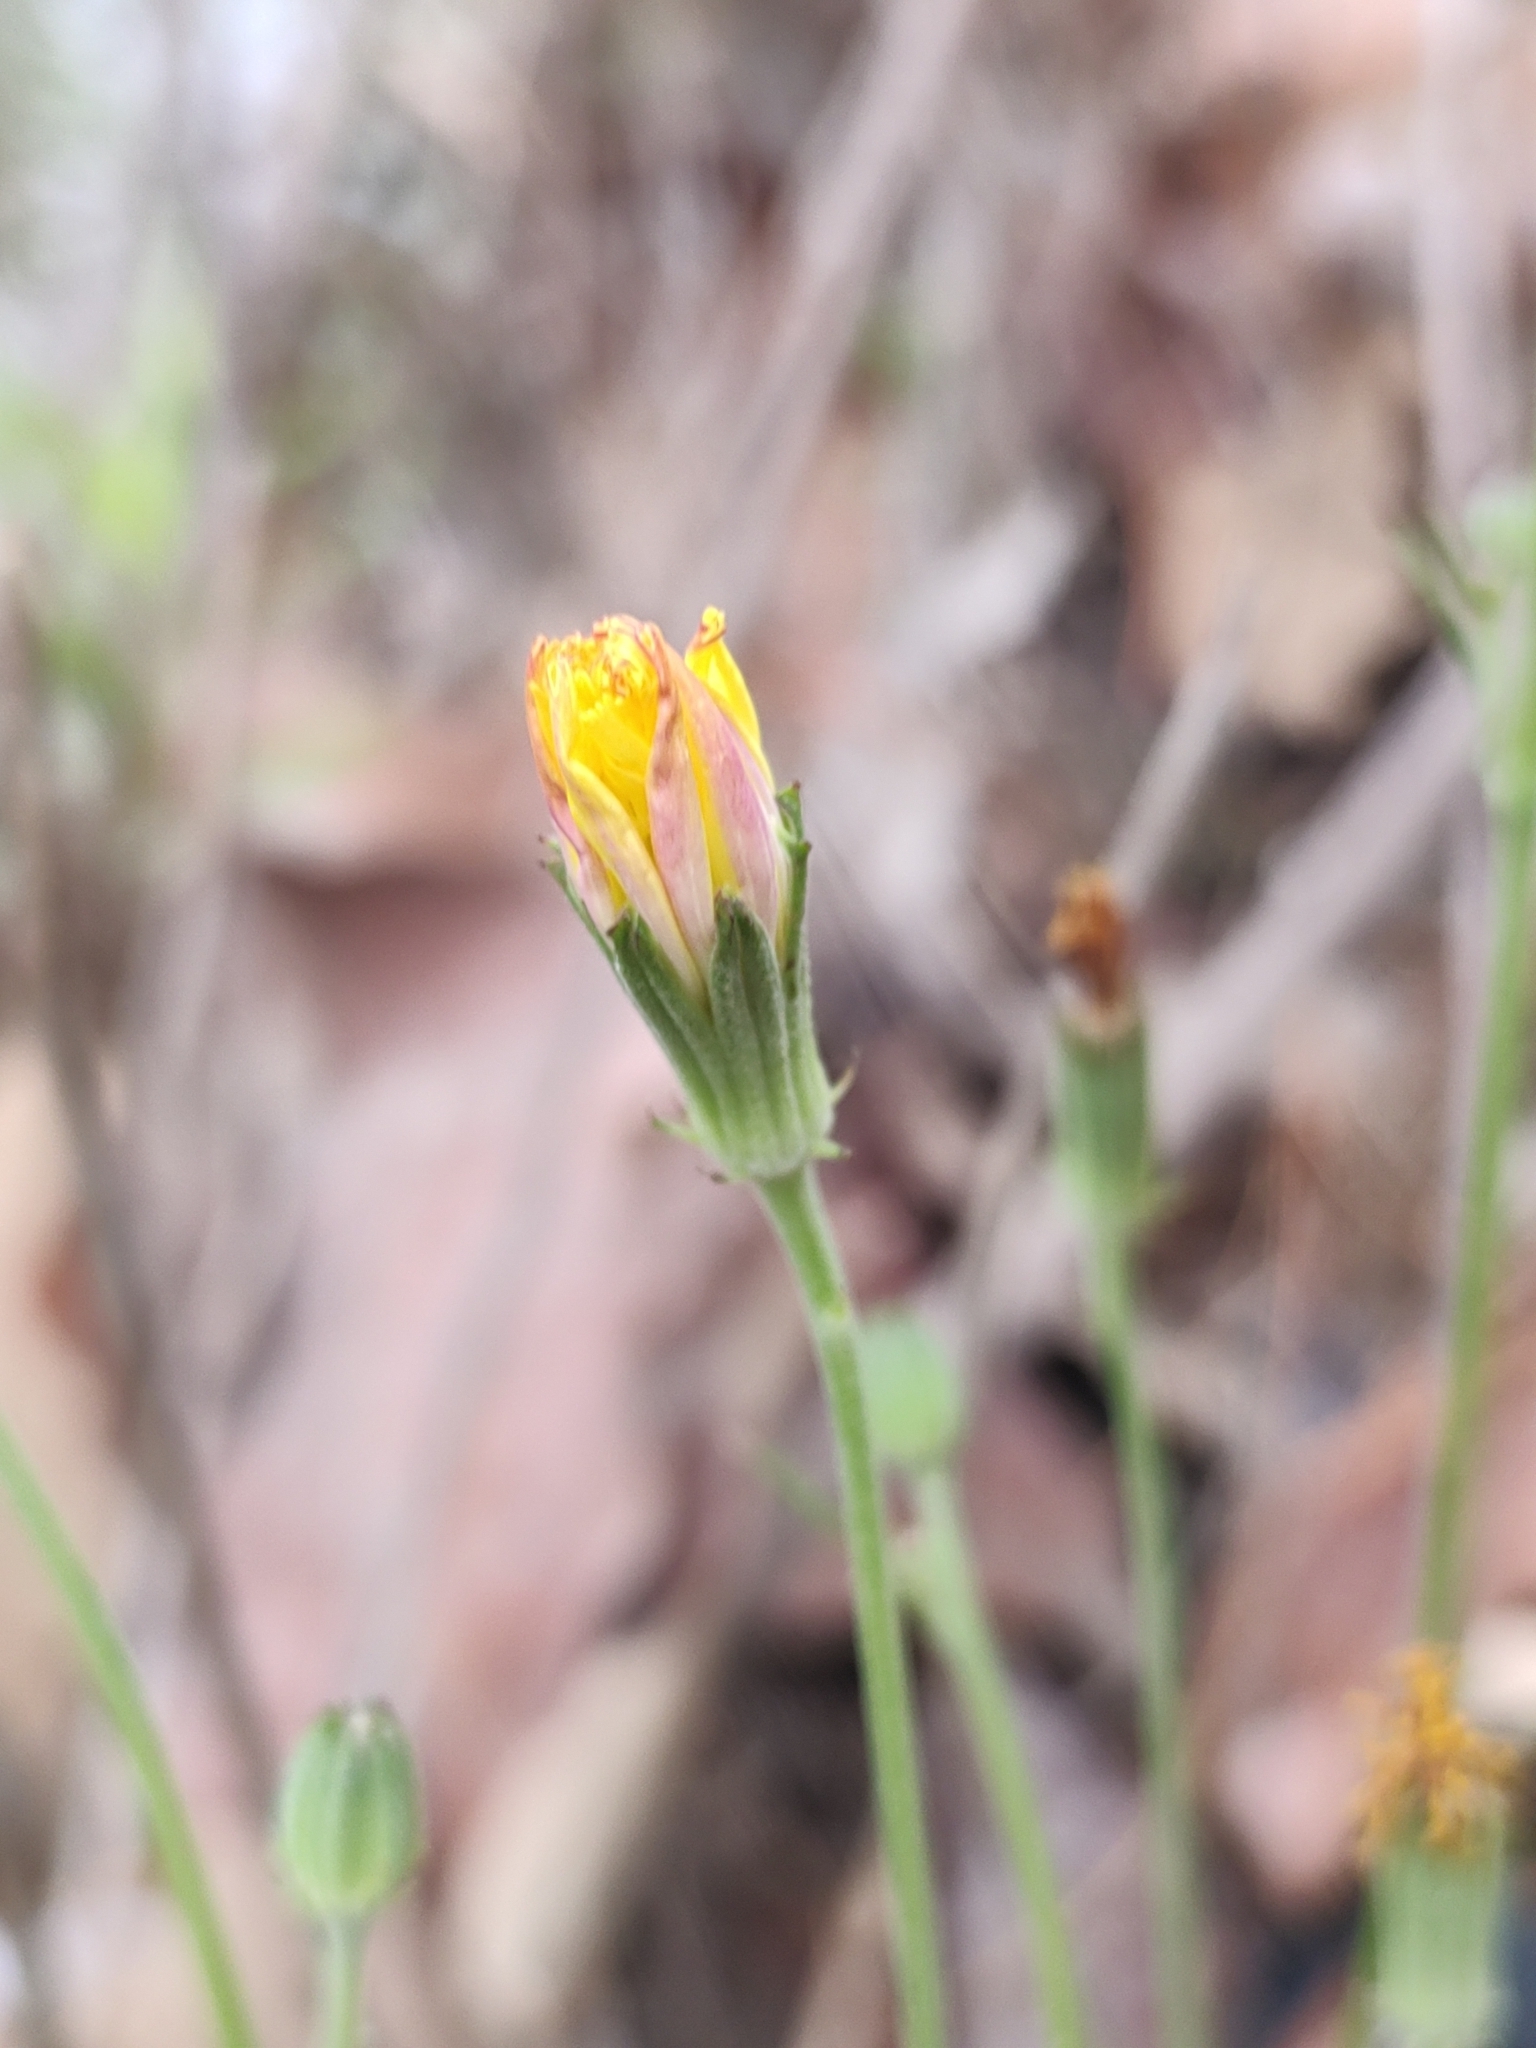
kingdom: Plantae
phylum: Tracheophyta
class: Magnoliopsida
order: Asterales
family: Asteraceae
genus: Pyrrhopappus
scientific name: Pyrrhopappus pauciflorus
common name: Texas false dandelion
